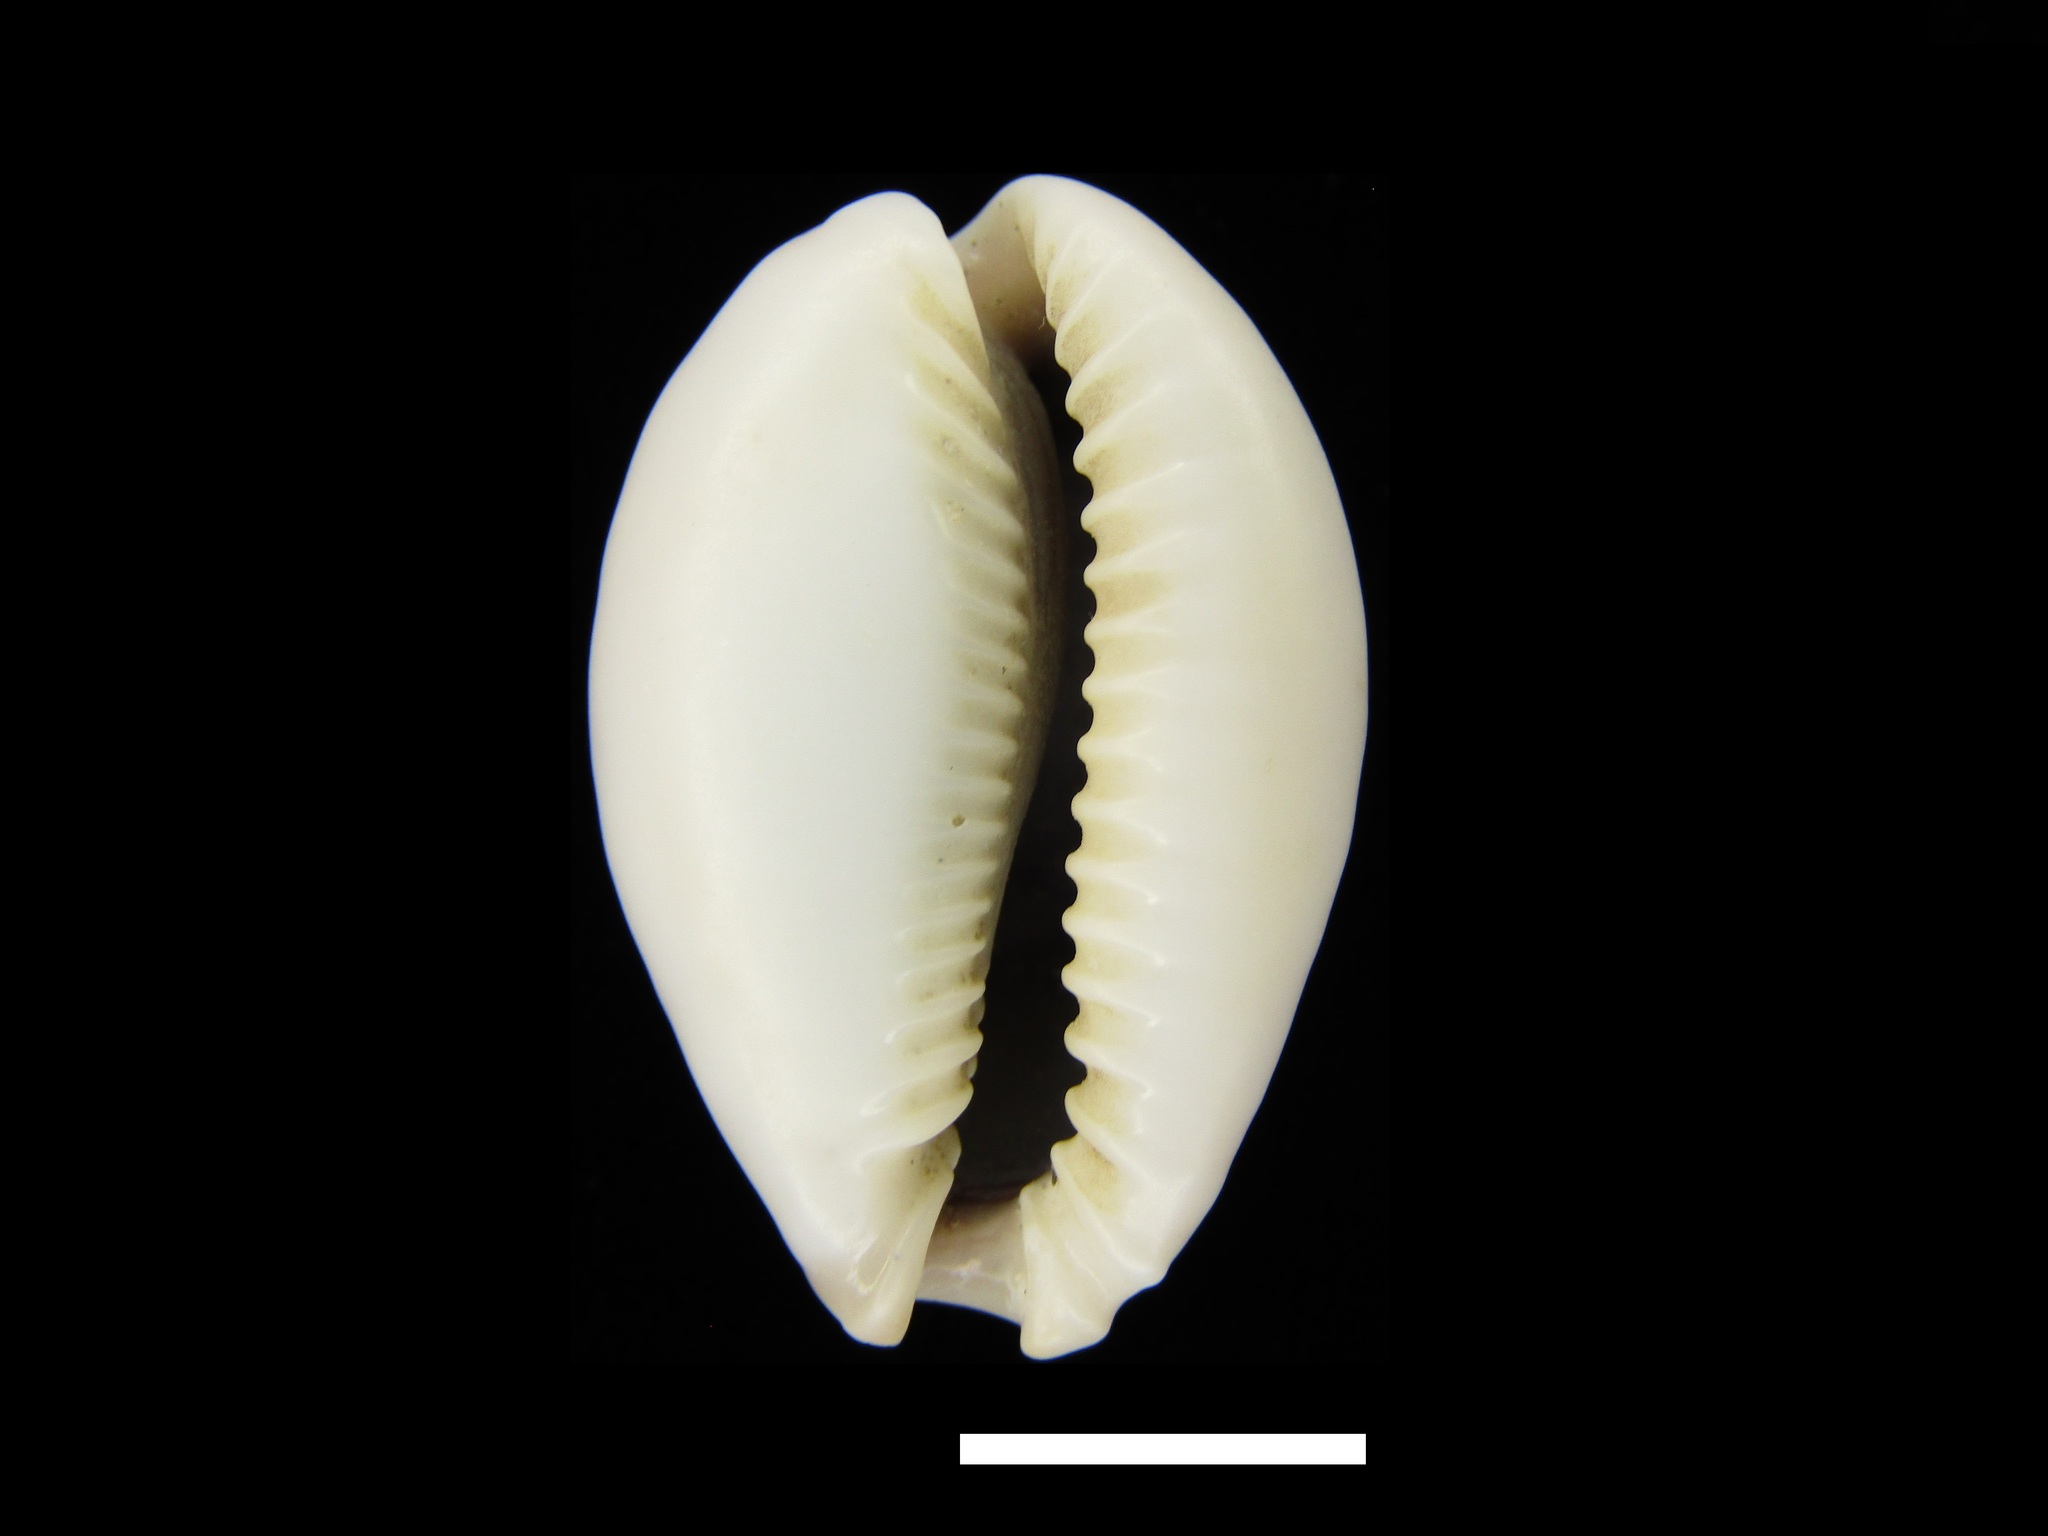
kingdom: Animalia
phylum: Mollusca
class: Gastropoda
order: Littorinimorpha
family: Cypraeidae
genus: Naria
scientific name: Naria boivinii
